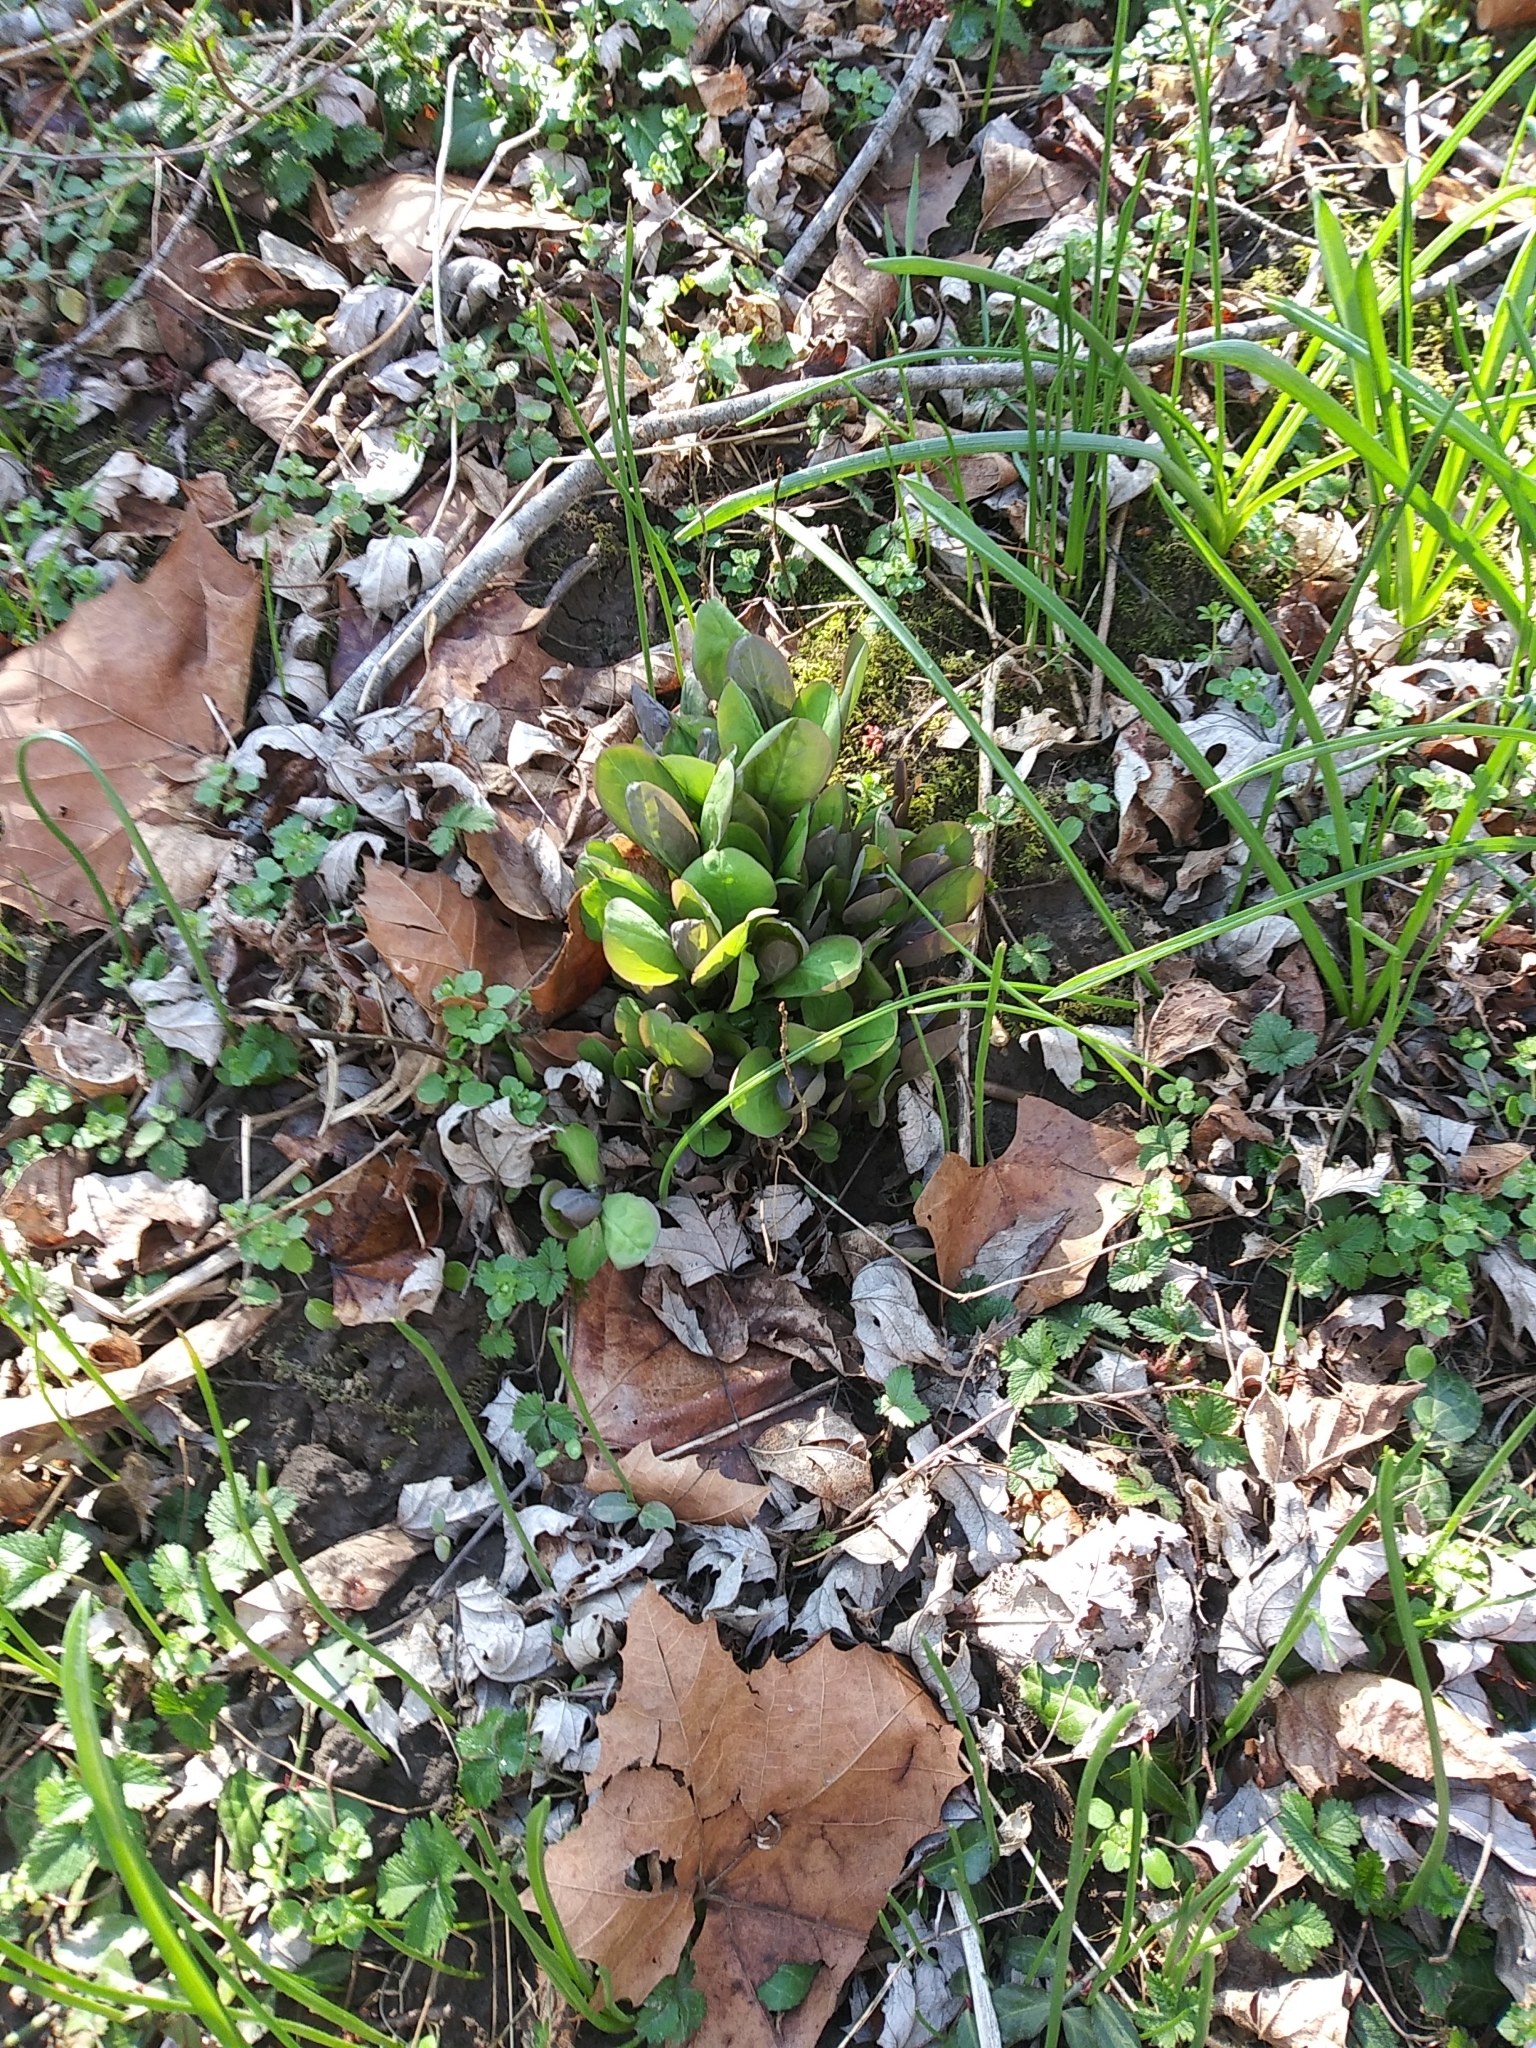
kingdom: Plantae
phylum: Tracheophyta
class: Magnoliopsida
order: Boraginales
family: Boraginaceae
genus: Mertensia
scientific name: Mertensia virginica
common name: Virginia bluebells
